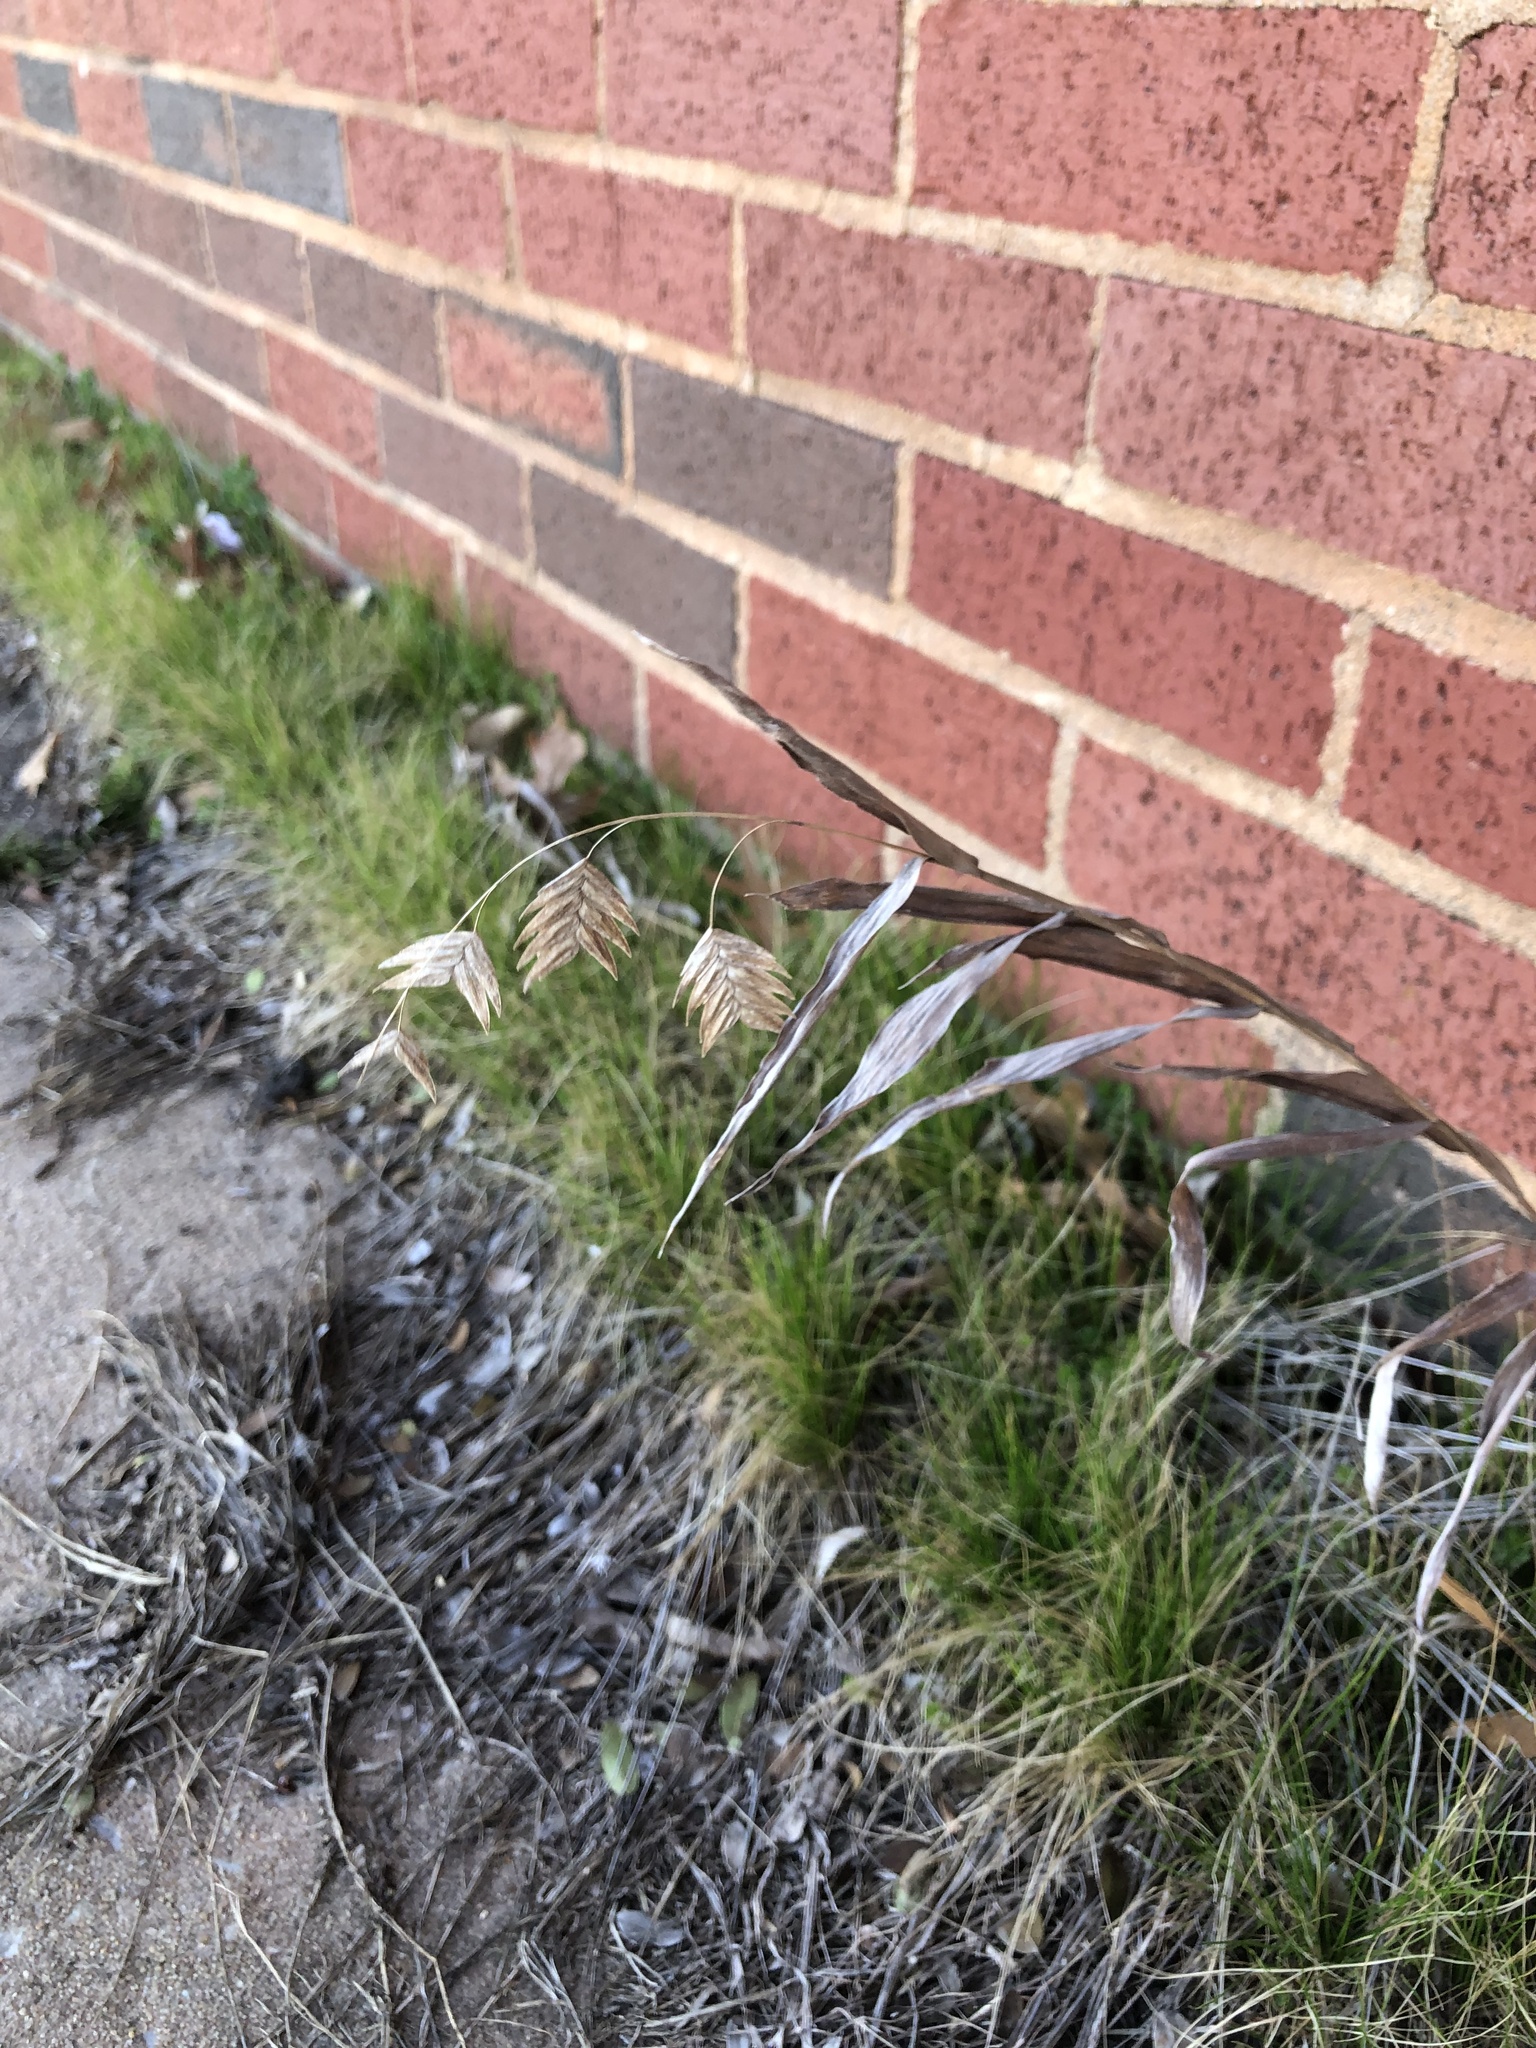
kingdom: Plantae
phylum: Tracheophyta
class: Liliopsida
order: Poales
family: Poaceae
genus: Chasmanthium
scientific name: Chasmanthium latifolium
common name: Broad-leaved chasmanthium
